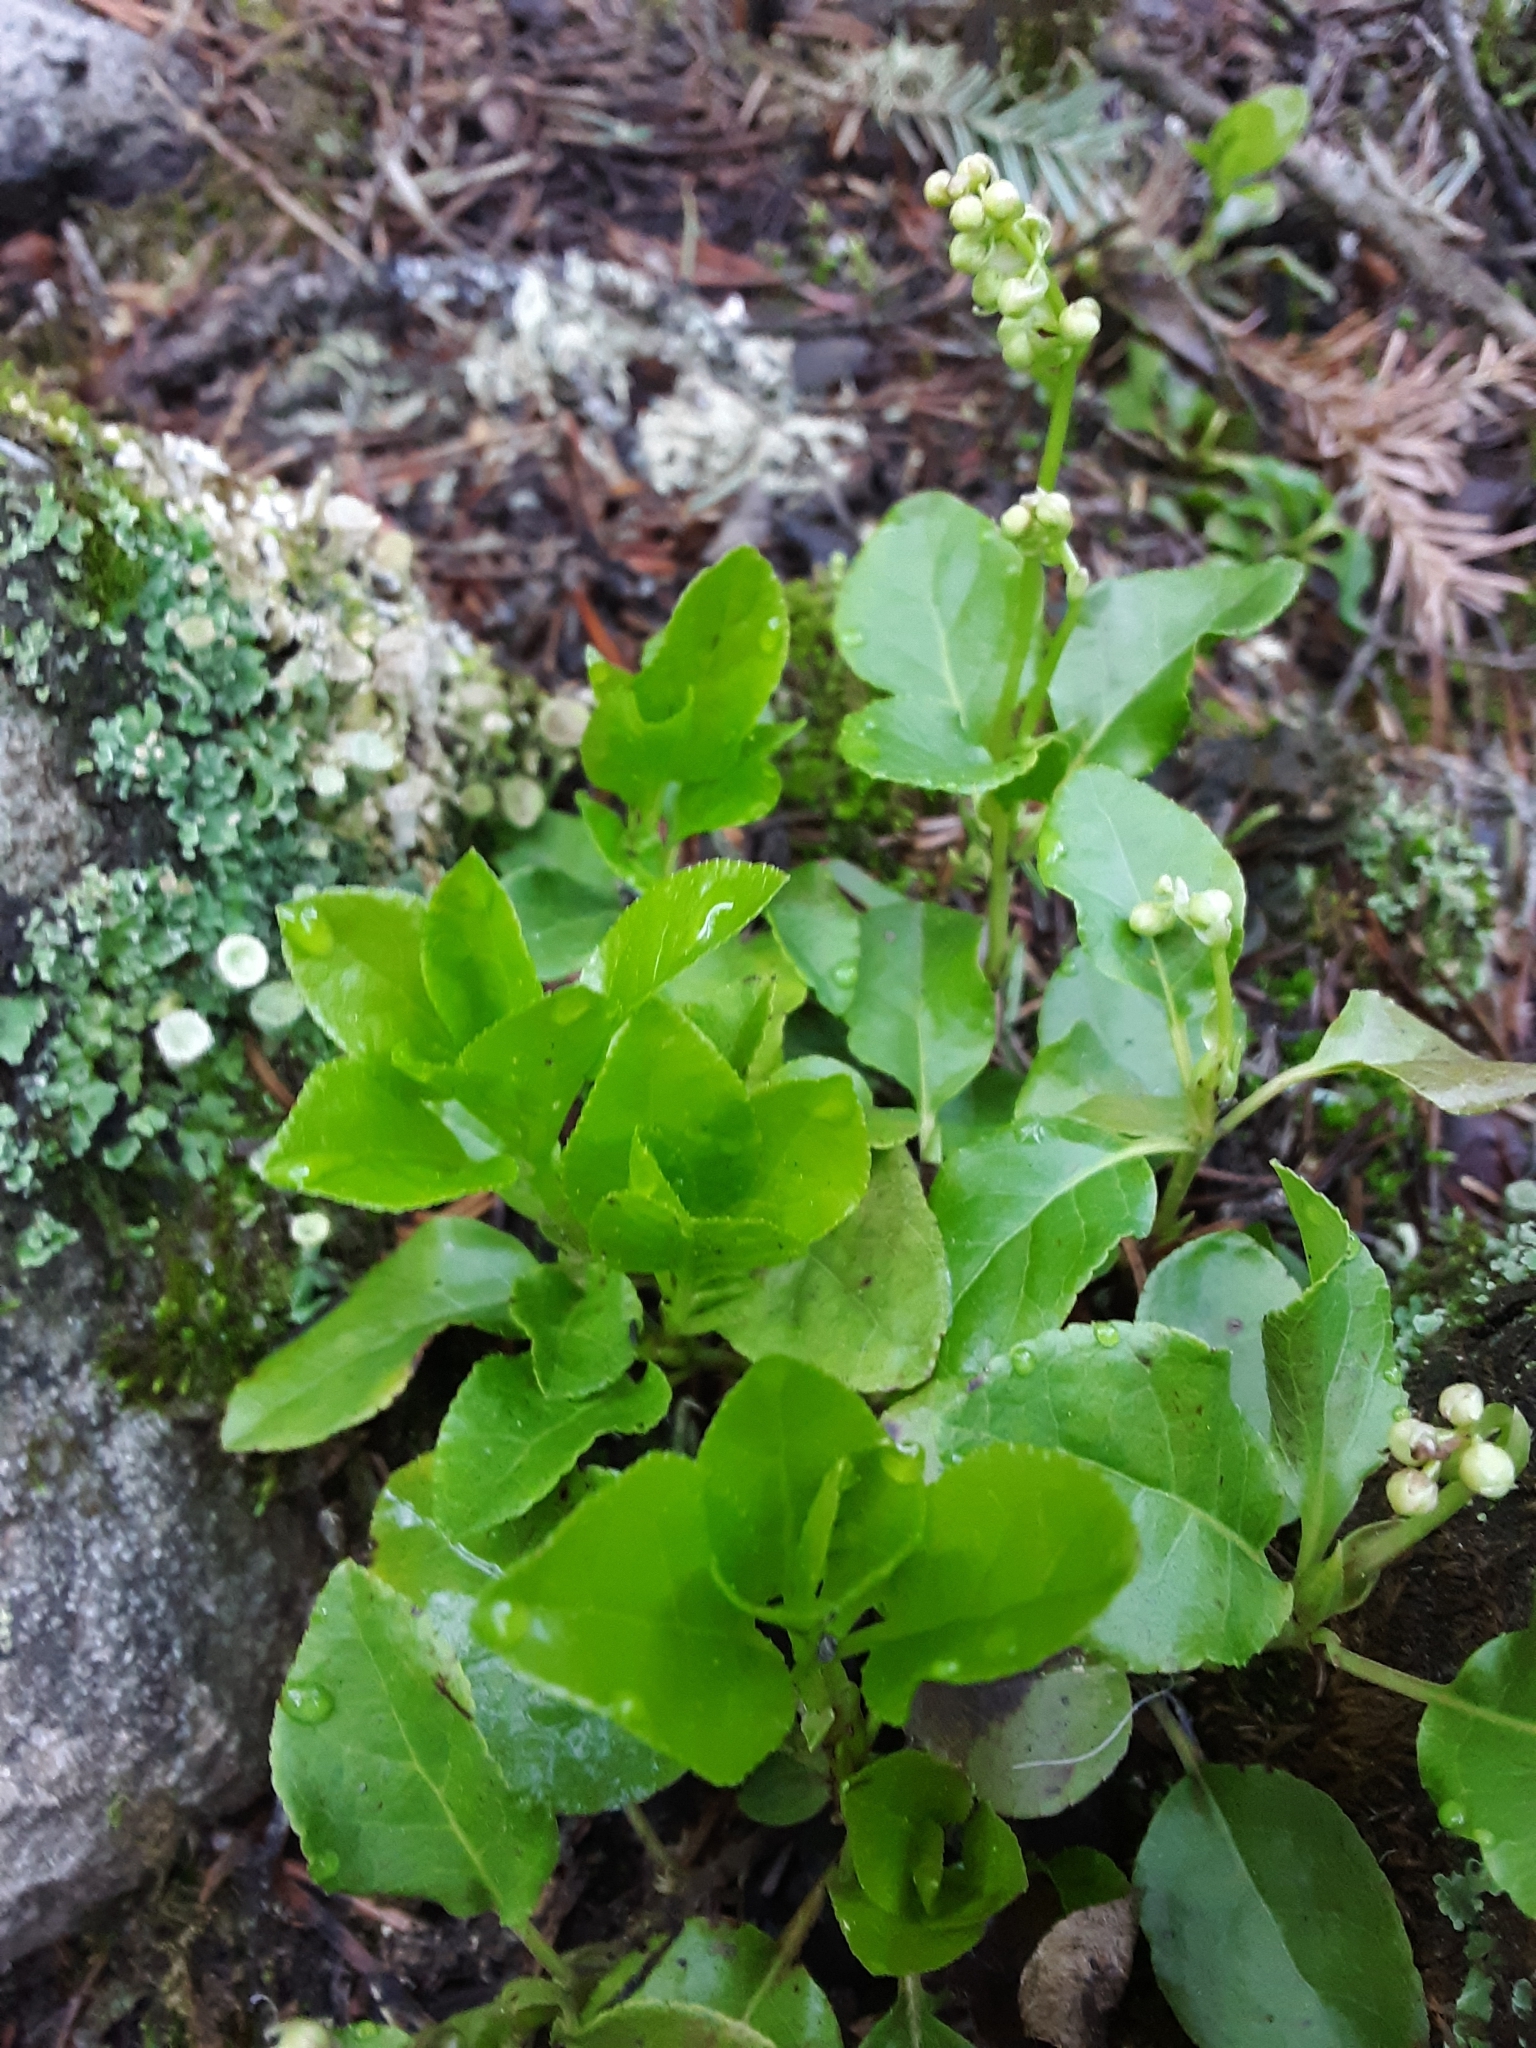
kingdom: Plantae
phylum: Tracheophyta
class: Magnoliopsida
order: Ericales
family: Ericaceae
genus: Orthilia
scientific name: Orthilia secunda
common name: One-sided orthilia
